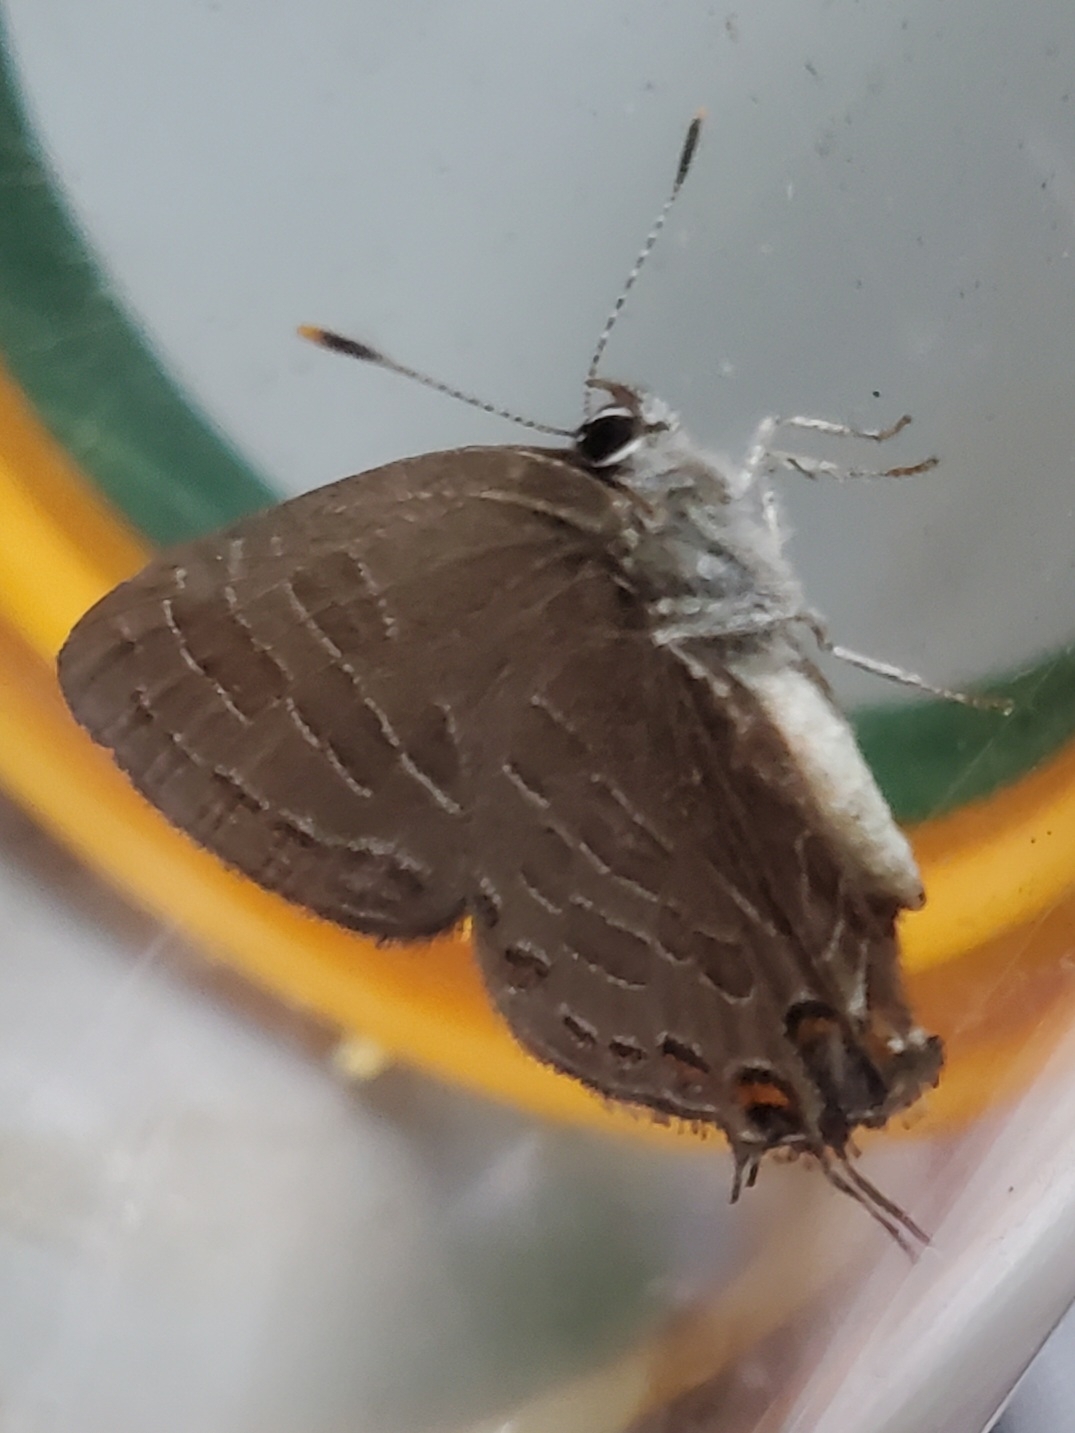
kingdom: Animalia
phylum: Arthropoda
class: Insecta
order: Lepidoptera
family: Lycaenidae
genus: Satyrium
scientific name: Satyrium liparops
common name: Striped hairstreak
